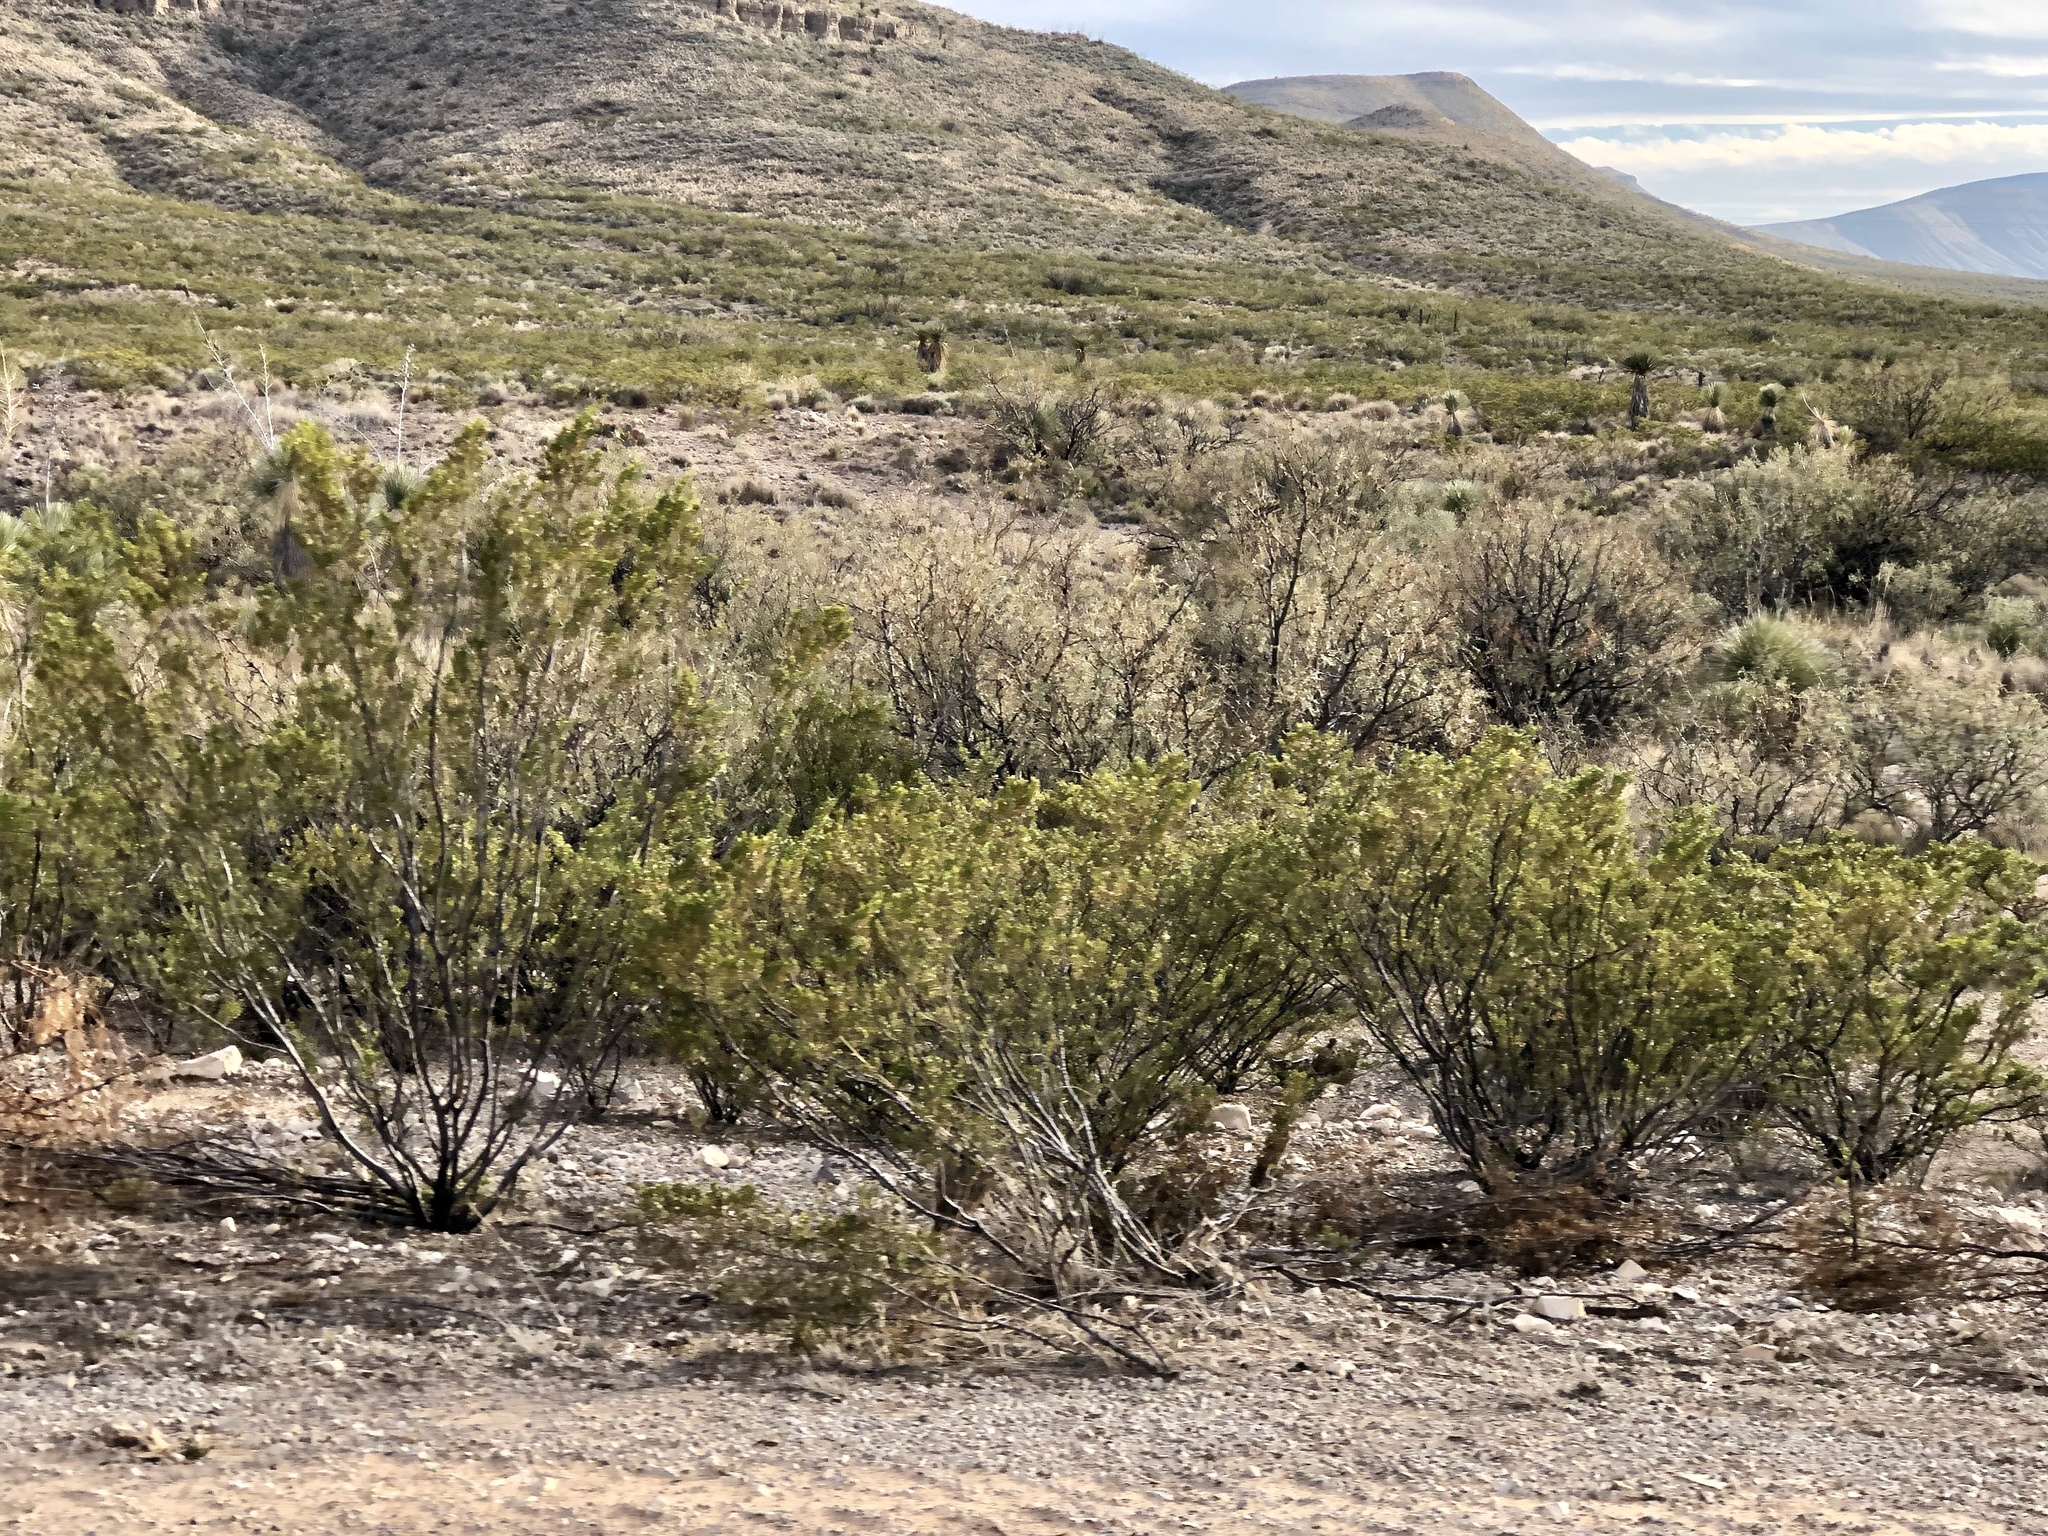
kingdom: Plantae
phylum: Tracheophyta
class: Magnoliopsida
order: Zygophyllales
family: Zygophyllaceae
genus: Larrea
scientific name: Larrea tridentata
